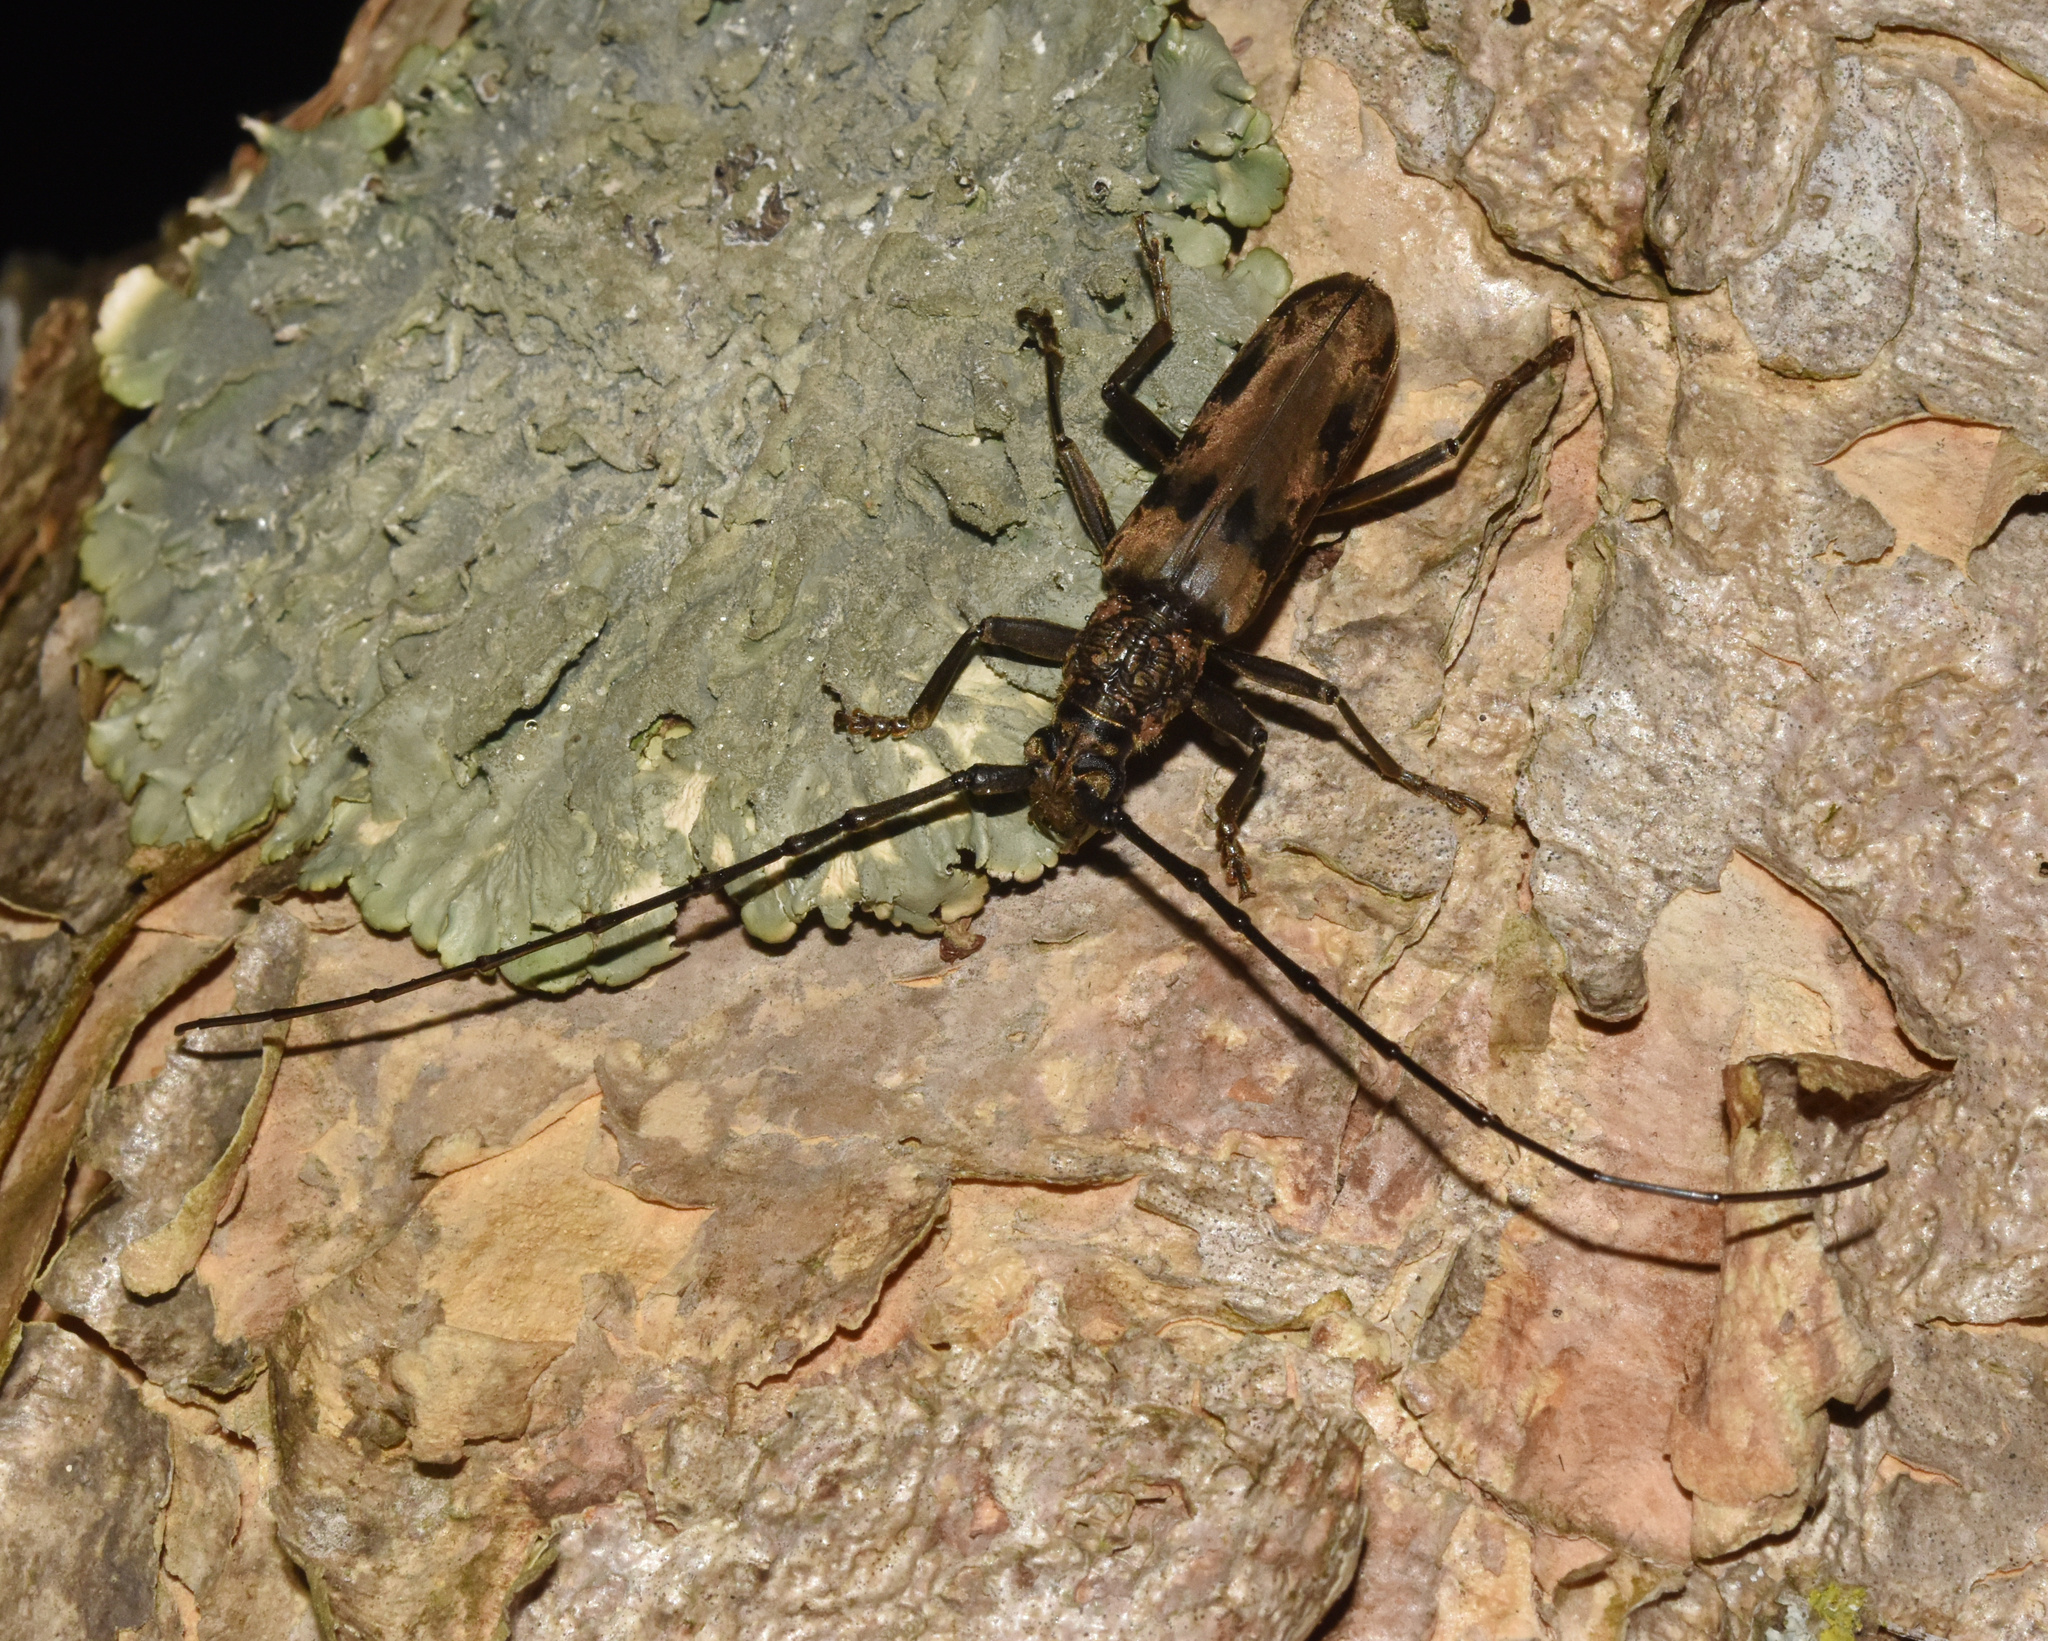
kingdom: Animalia
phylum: Arthropoda
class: Insecta
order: Coleoptera
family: Cerambycidae
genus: Pachydissus
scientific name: Pachydissus natalensis
